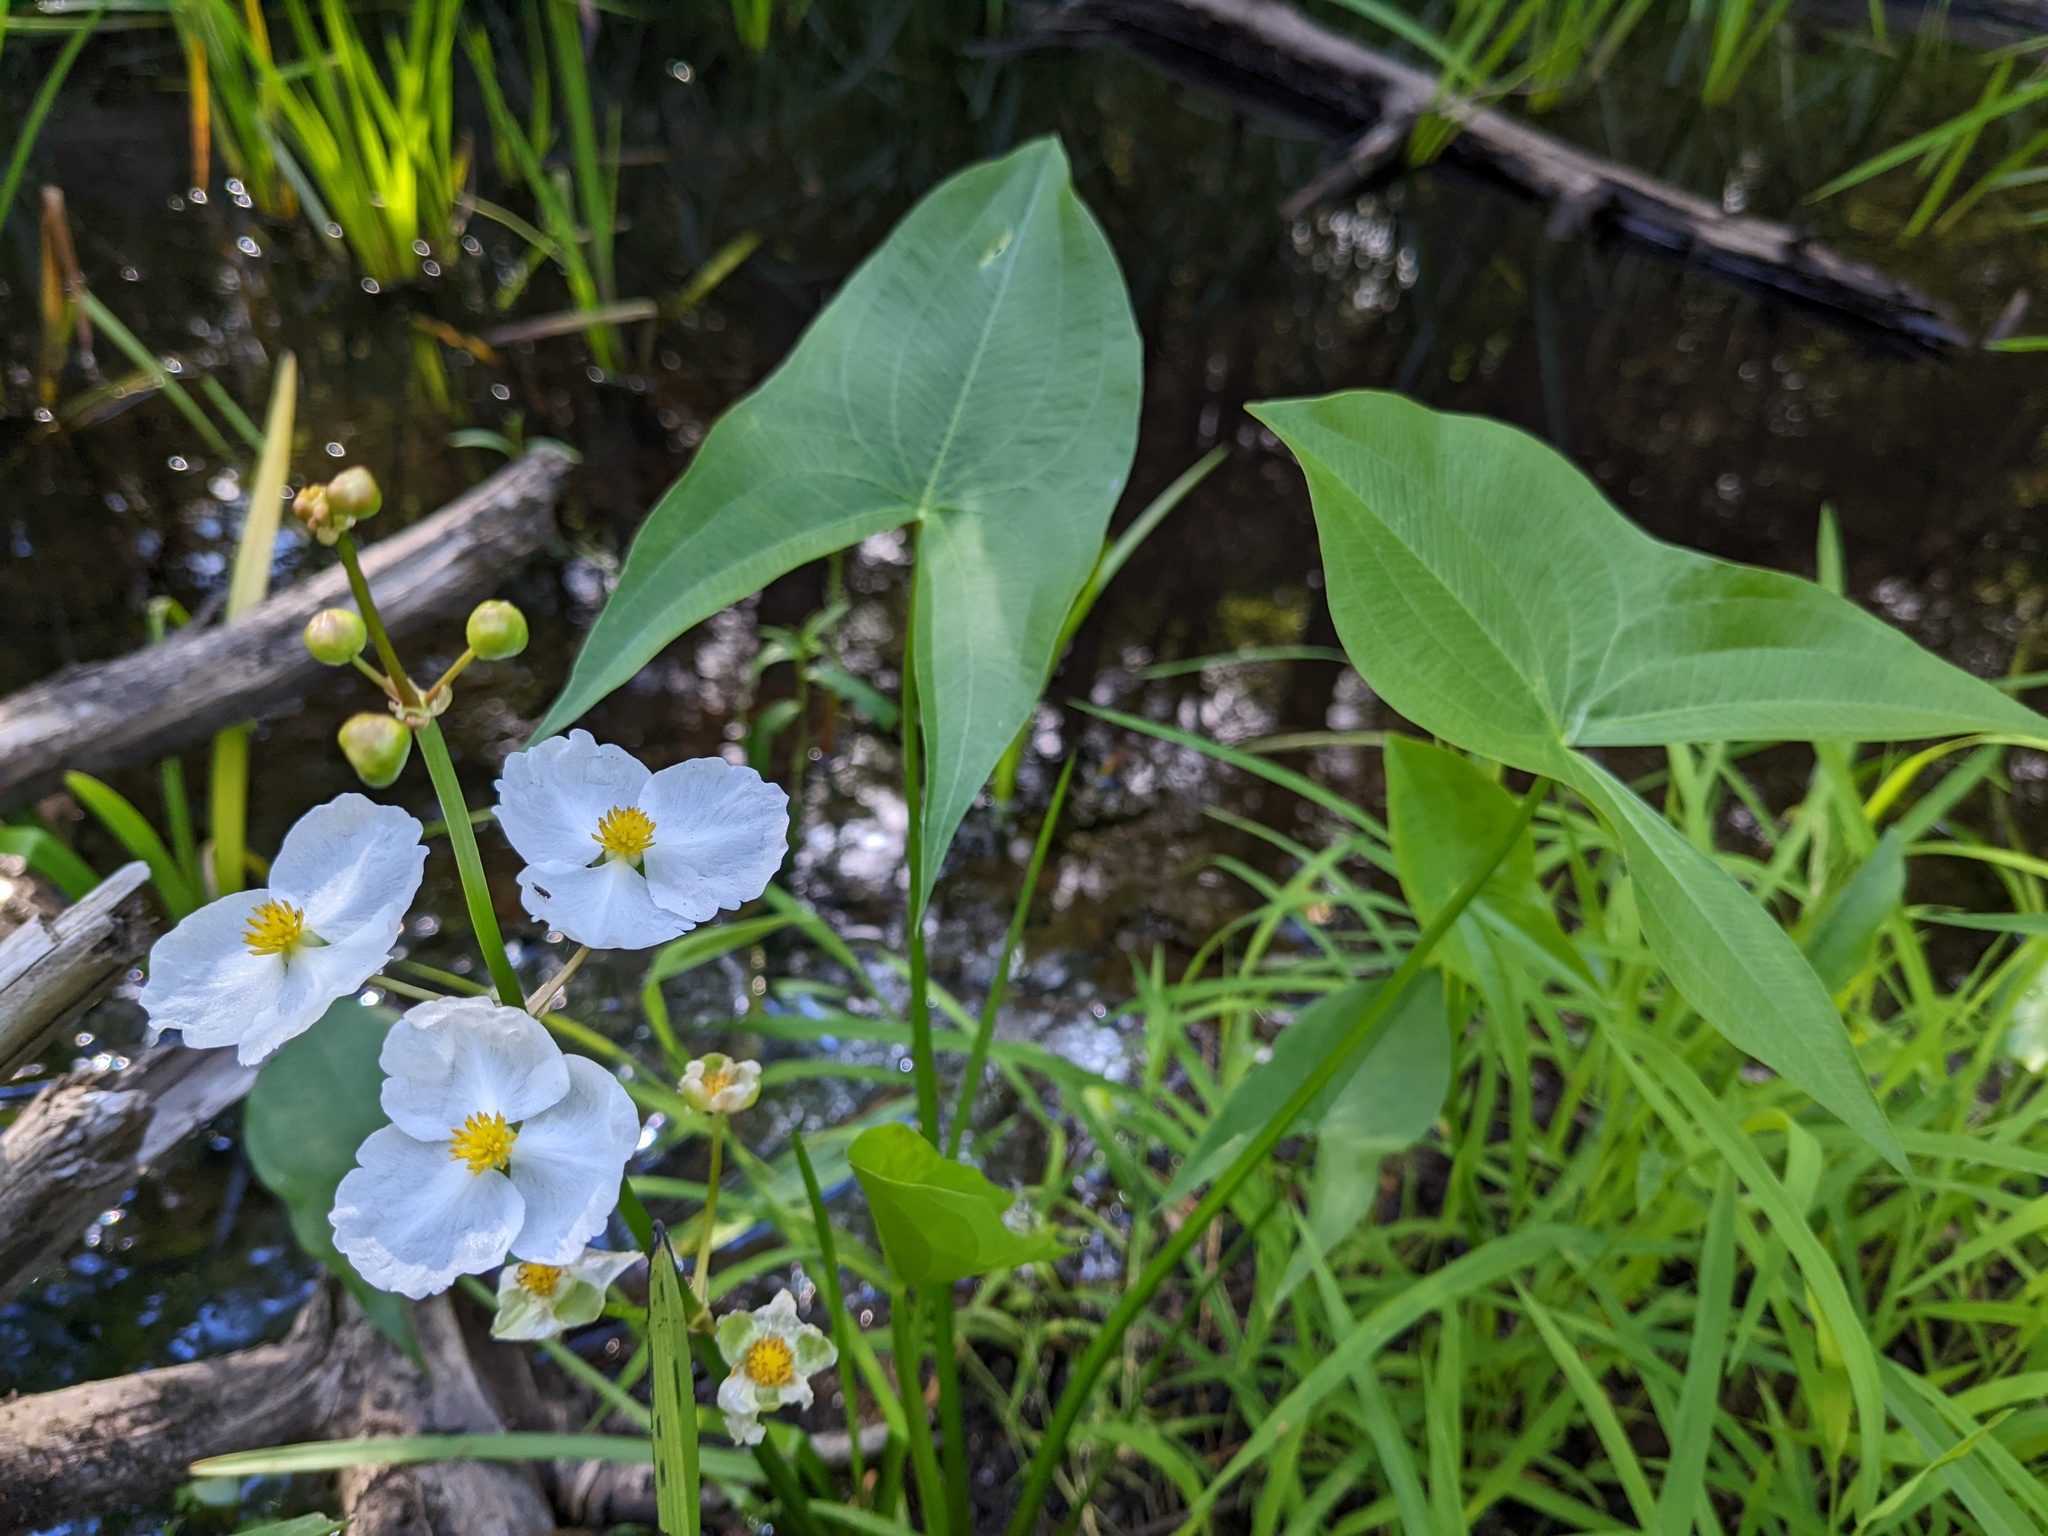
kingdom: Plantae
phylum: Tracheophyta
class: Liliopsida
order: Alismatales
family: Alismataceae
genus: Sagittaria
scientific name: Sagittaria latifolia
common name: Duck-potato
